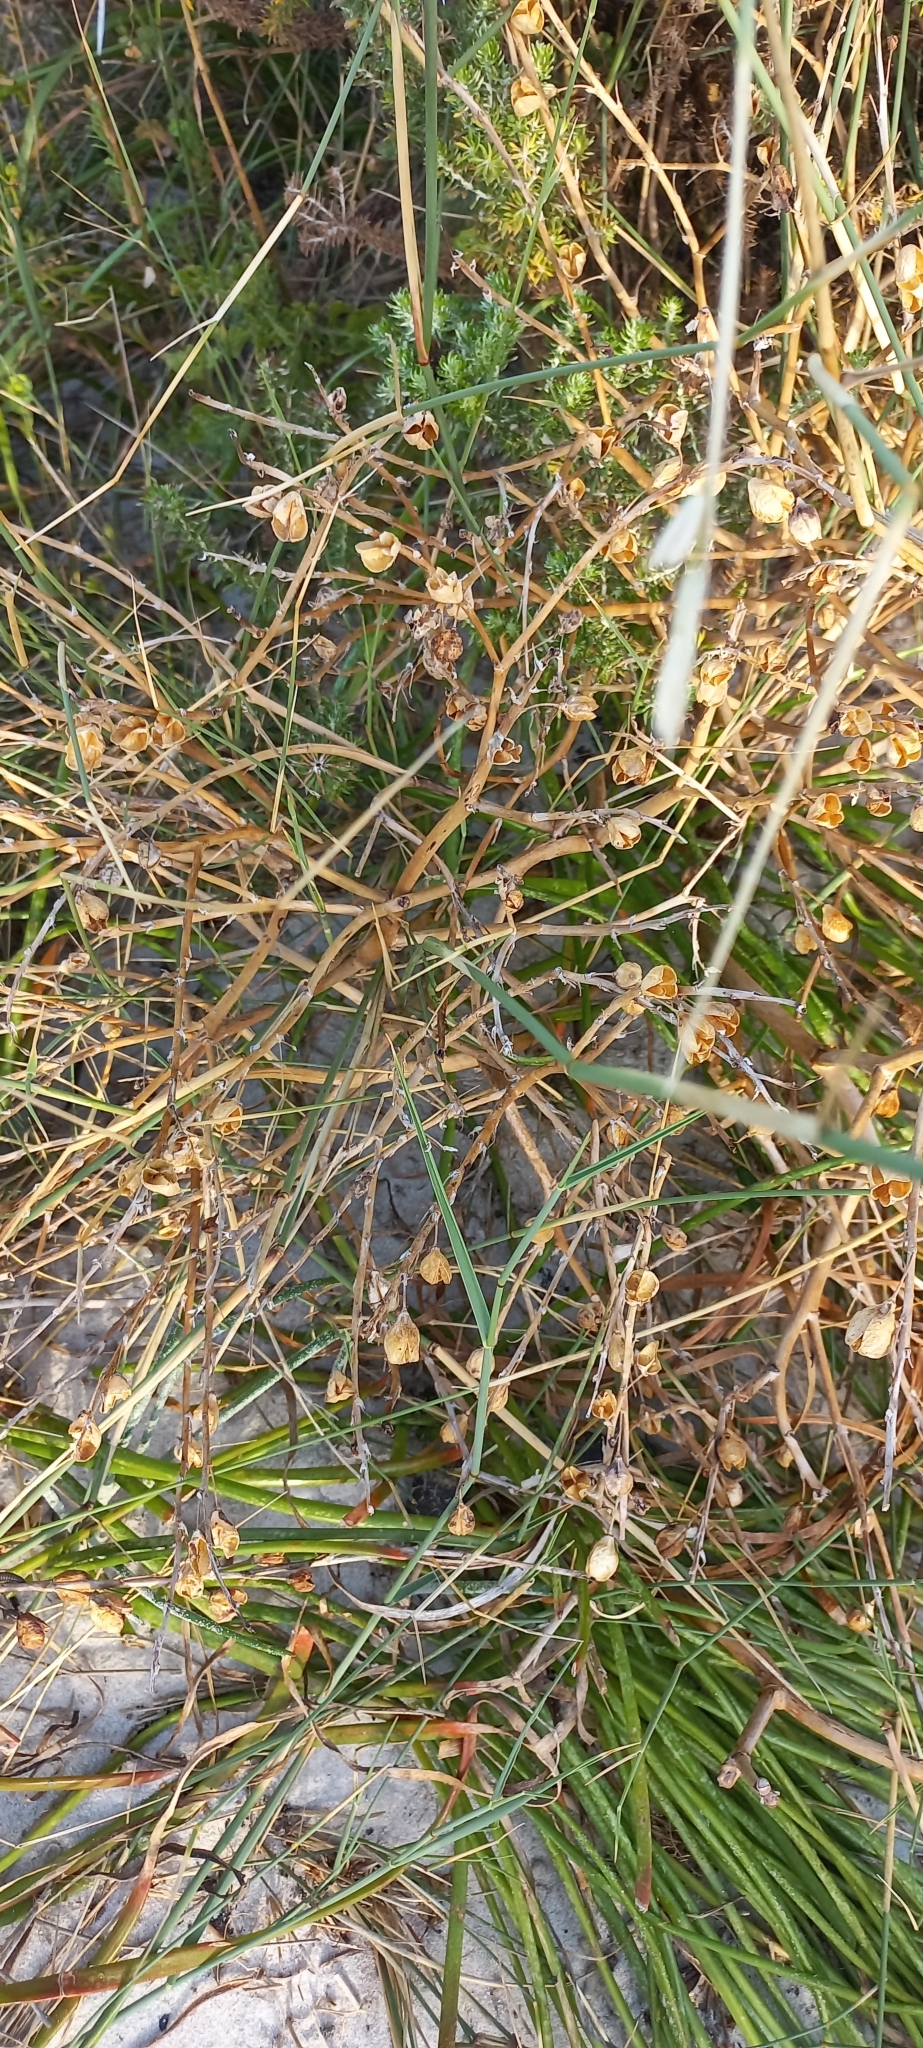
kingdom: Plantae
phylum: Tracheophyta
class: Liliopsida
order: Asparagales
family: Asphodelaceae
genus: Trachyandra
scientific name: Trachyandra divaricata
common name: Dune onionweed
